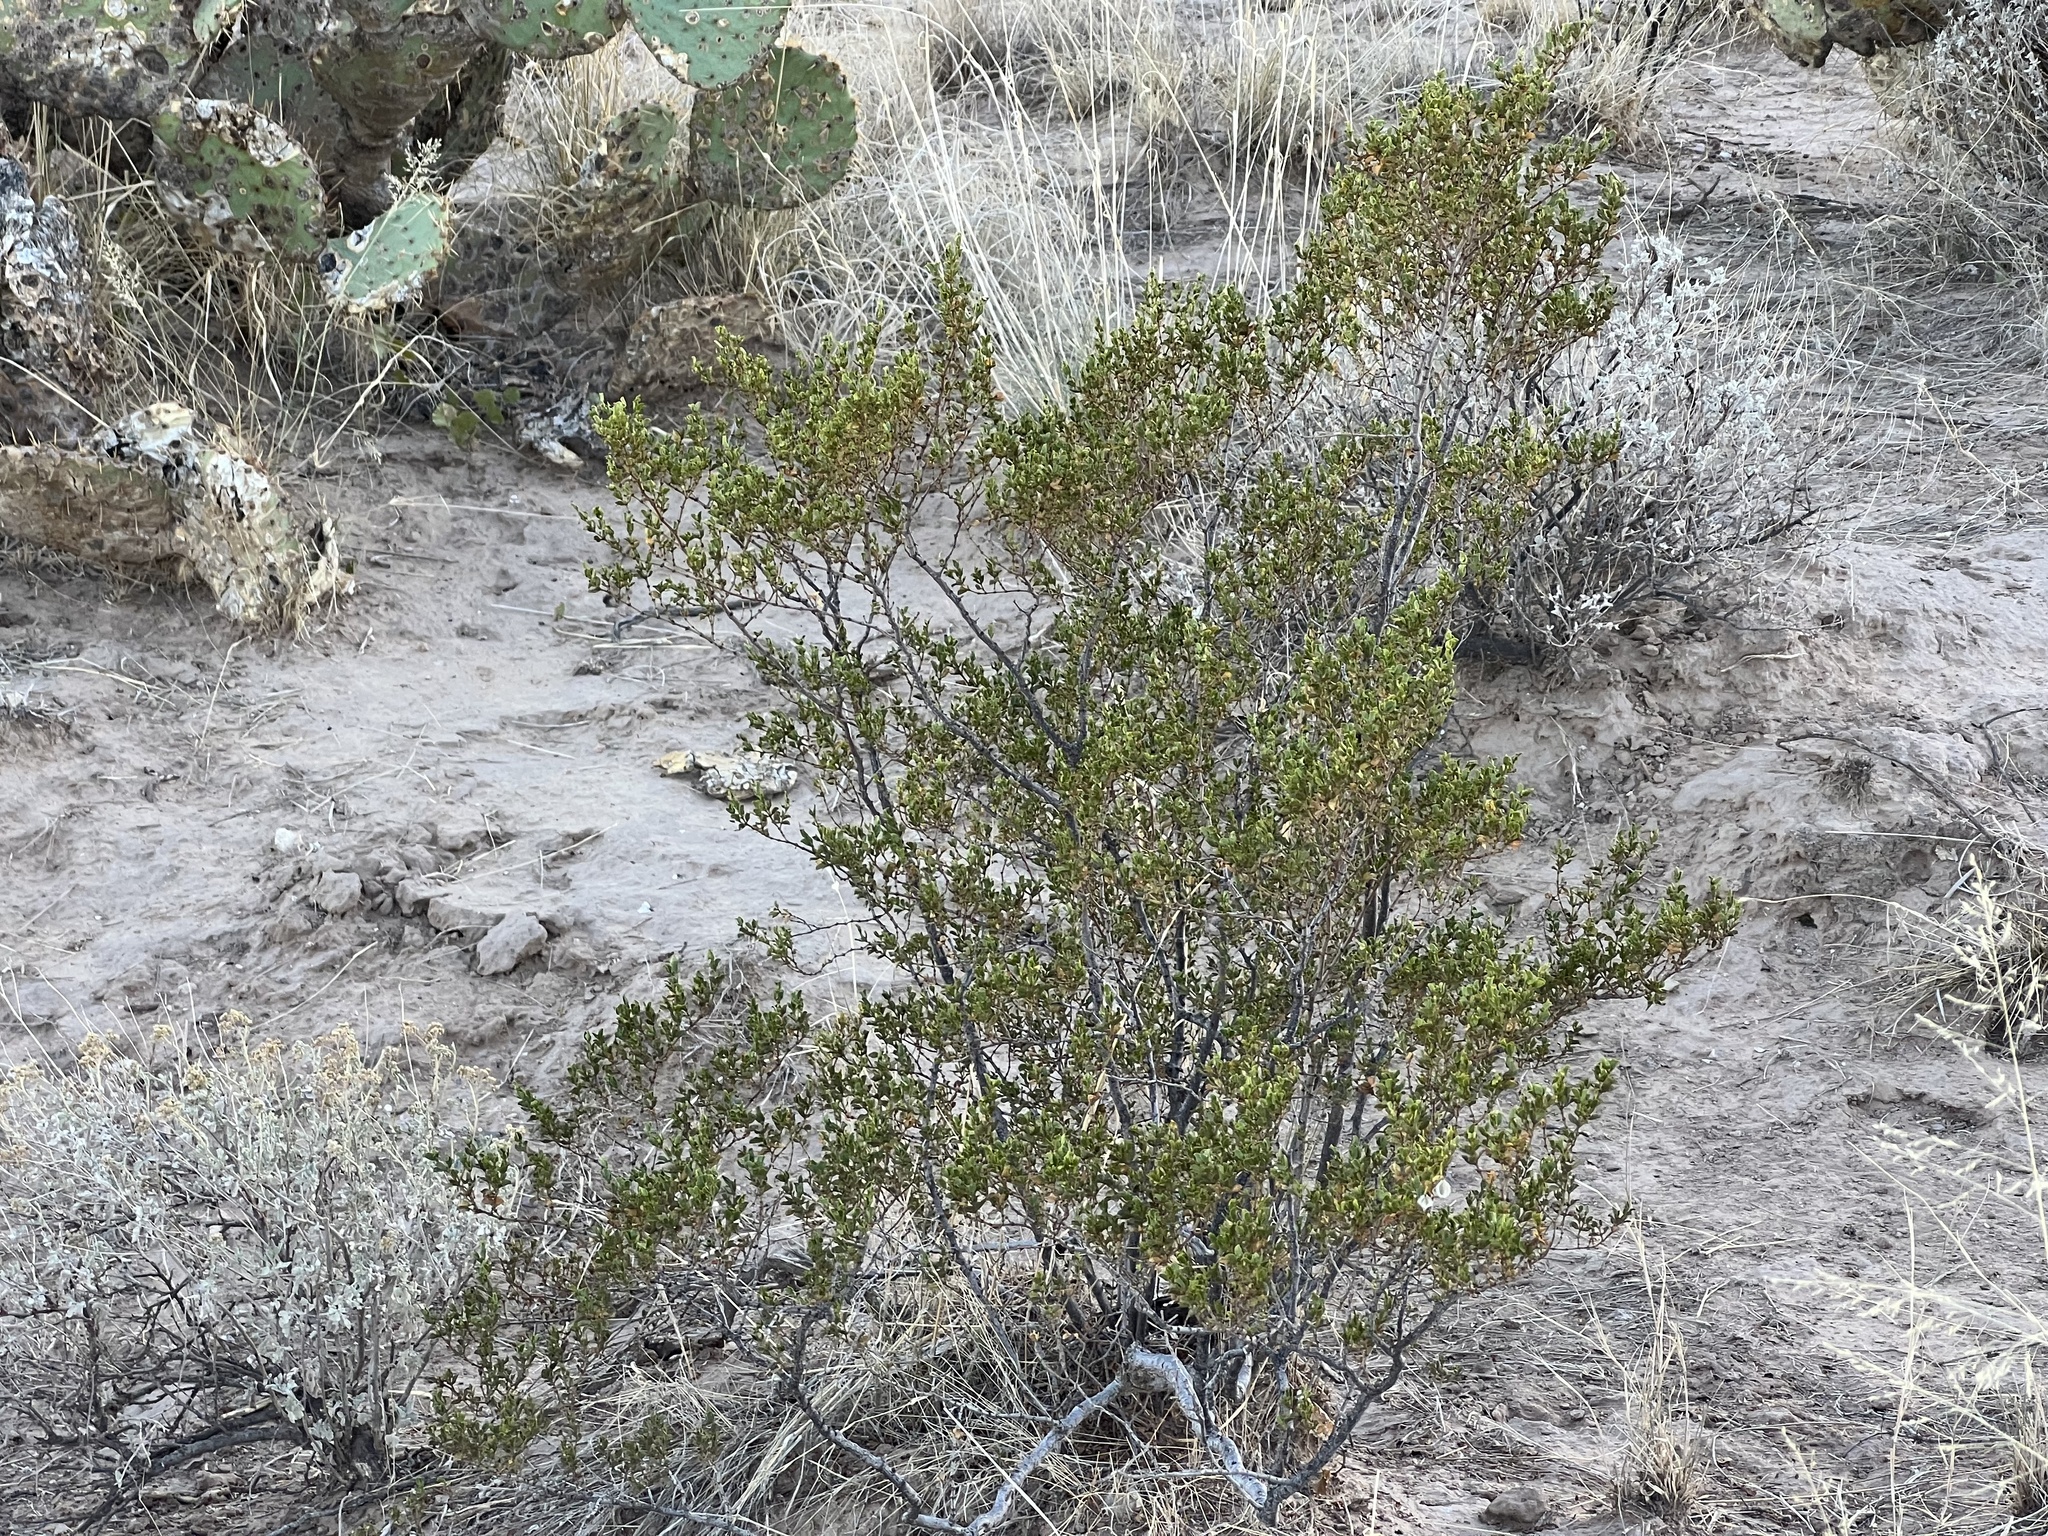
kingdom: Plantae
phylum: Tracheophyta
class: Magnoliopsida
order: Zygophyllales
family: Zygophyllaceae
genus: Larrea
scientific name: Larrea tridentata
